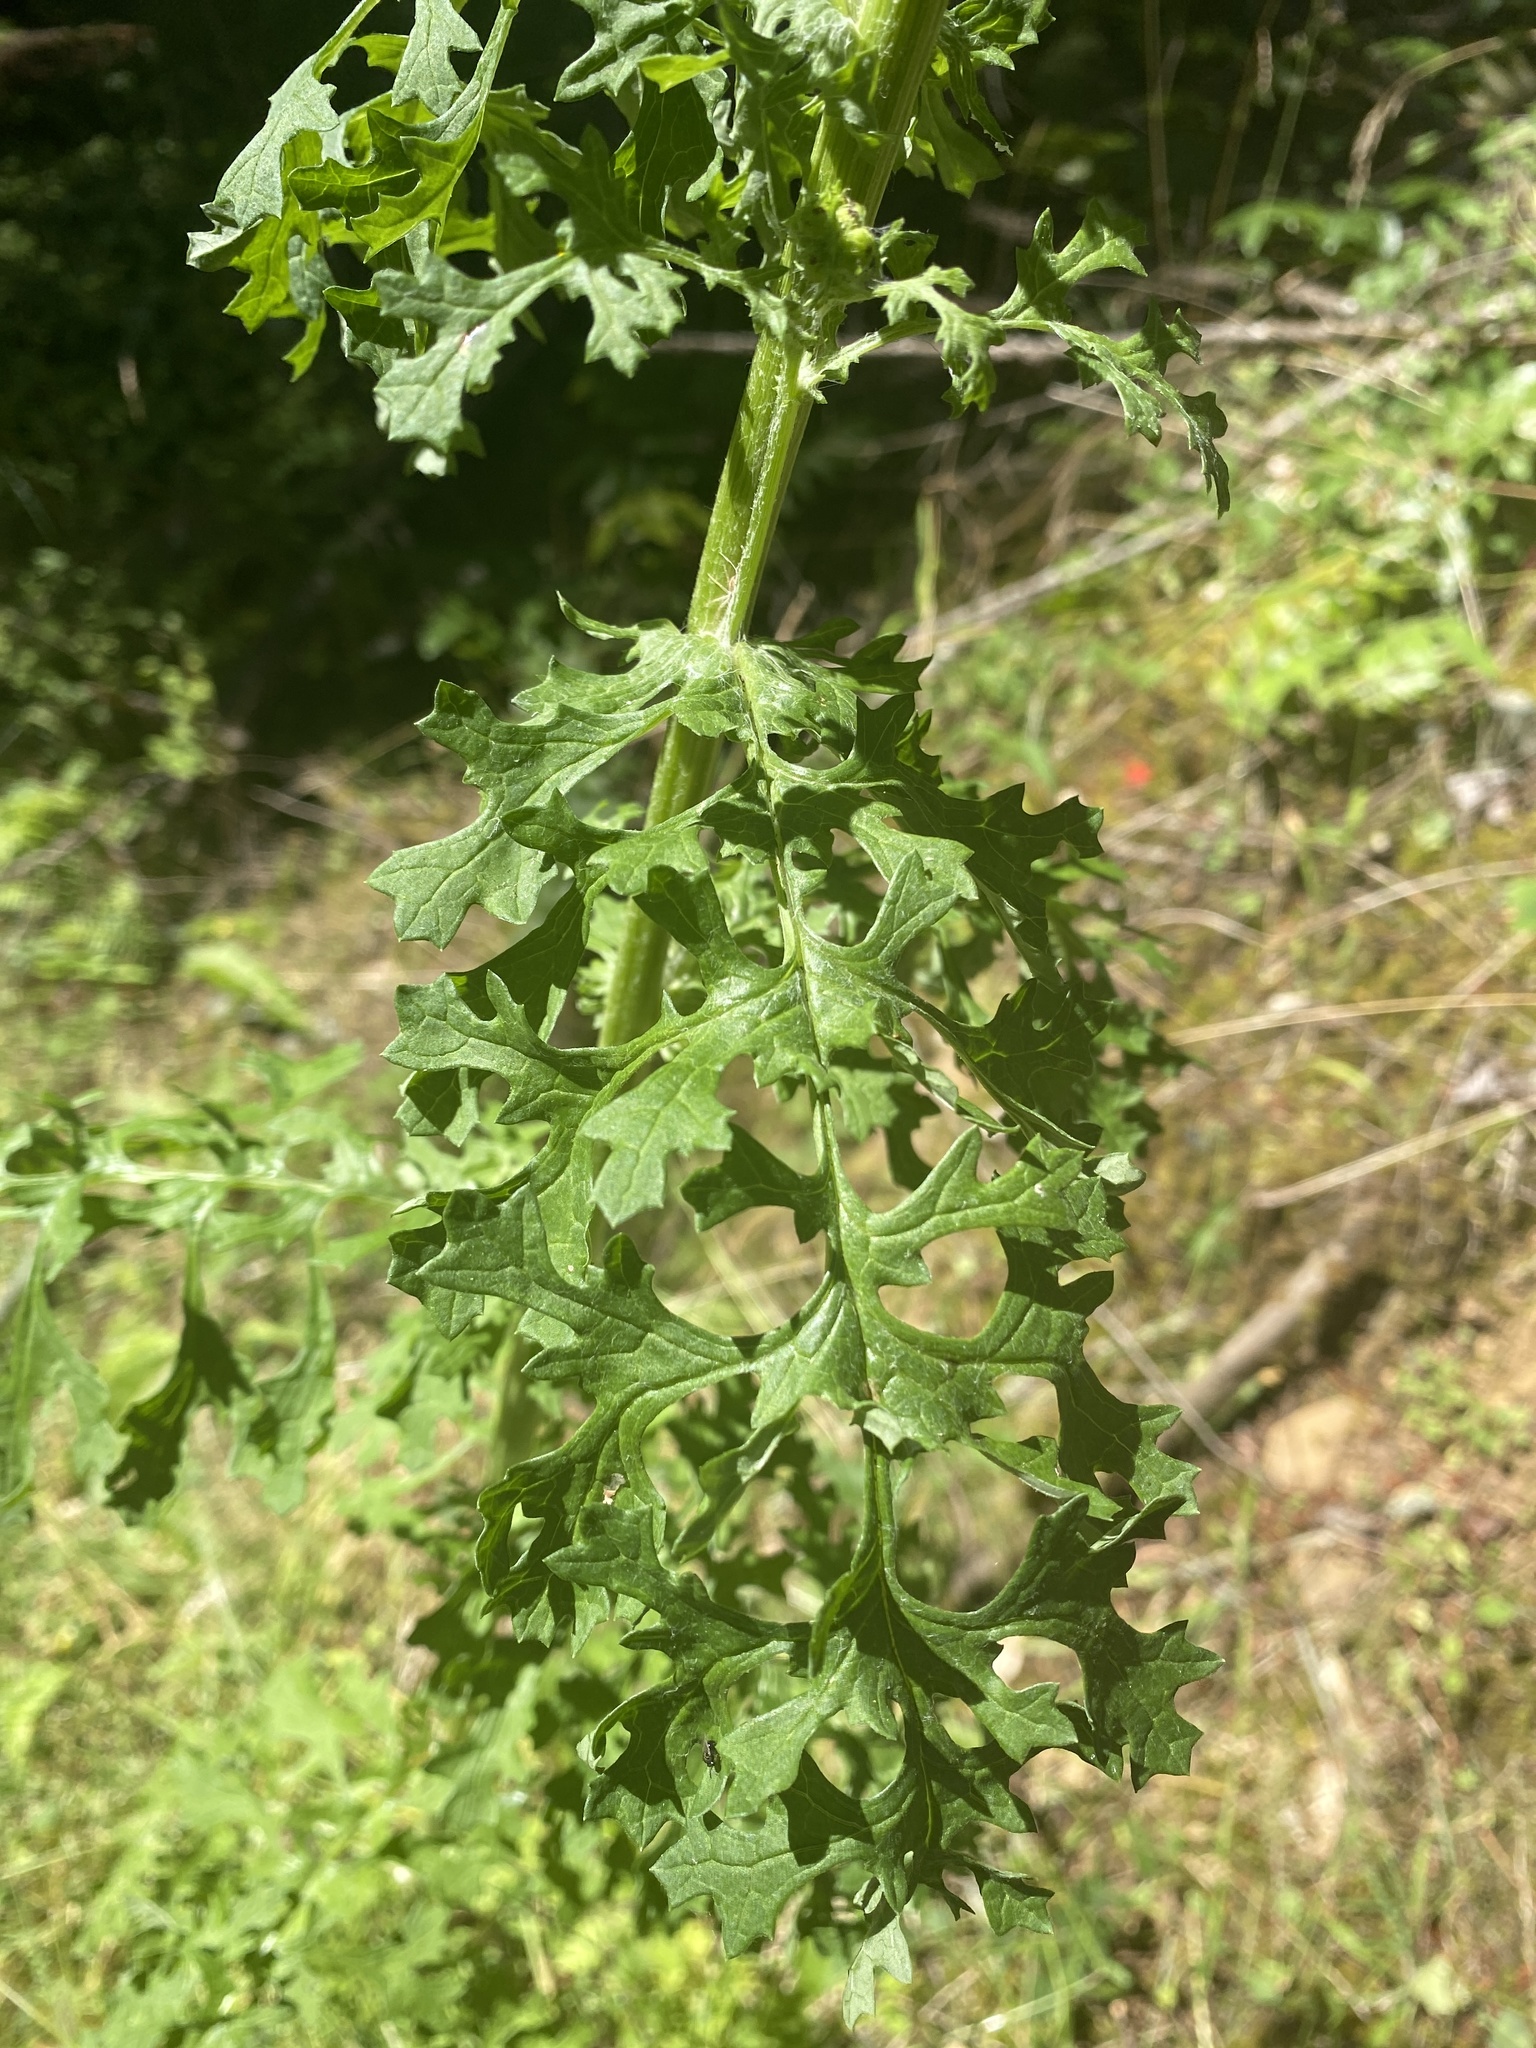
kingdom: Plantae
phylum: Tracheophyta
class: Magnoliopsida
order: Asterales
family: Asteraceae
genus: Jacobaea
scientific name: Jacobaea vulgaris
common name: Stinking willie
